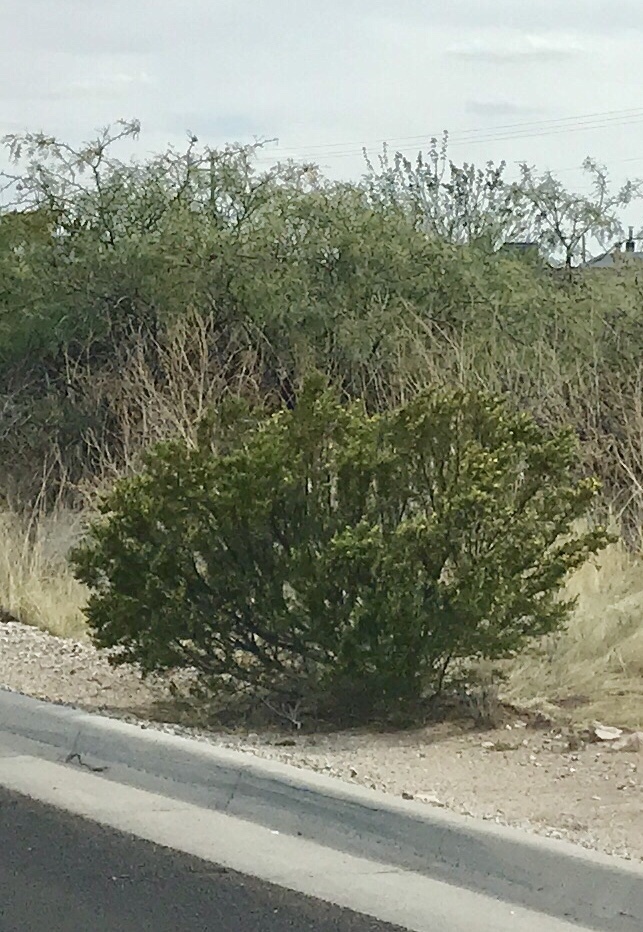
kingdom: Plantae
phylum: Tracheophyta
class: Magnoliopsida
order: Zygophyllales
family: Zygophyllaceae
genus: Larrea
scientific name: Larrea tridentata
